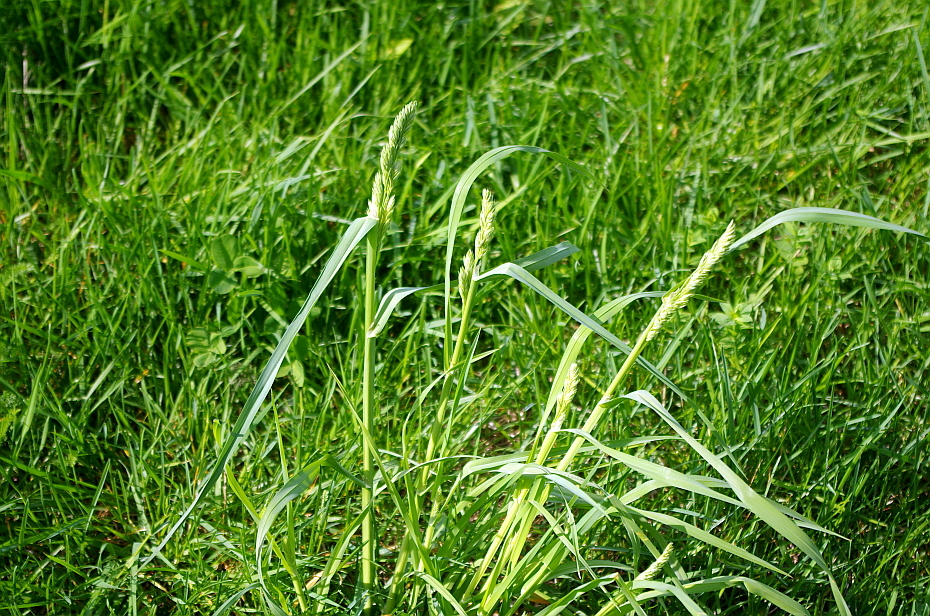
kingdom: Plantae
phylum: Tracheophyta
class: Liliopsida
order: Poales
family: Poaceae
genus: Dactylis
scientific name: Dactylis glomerata
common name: Orchardgrass
